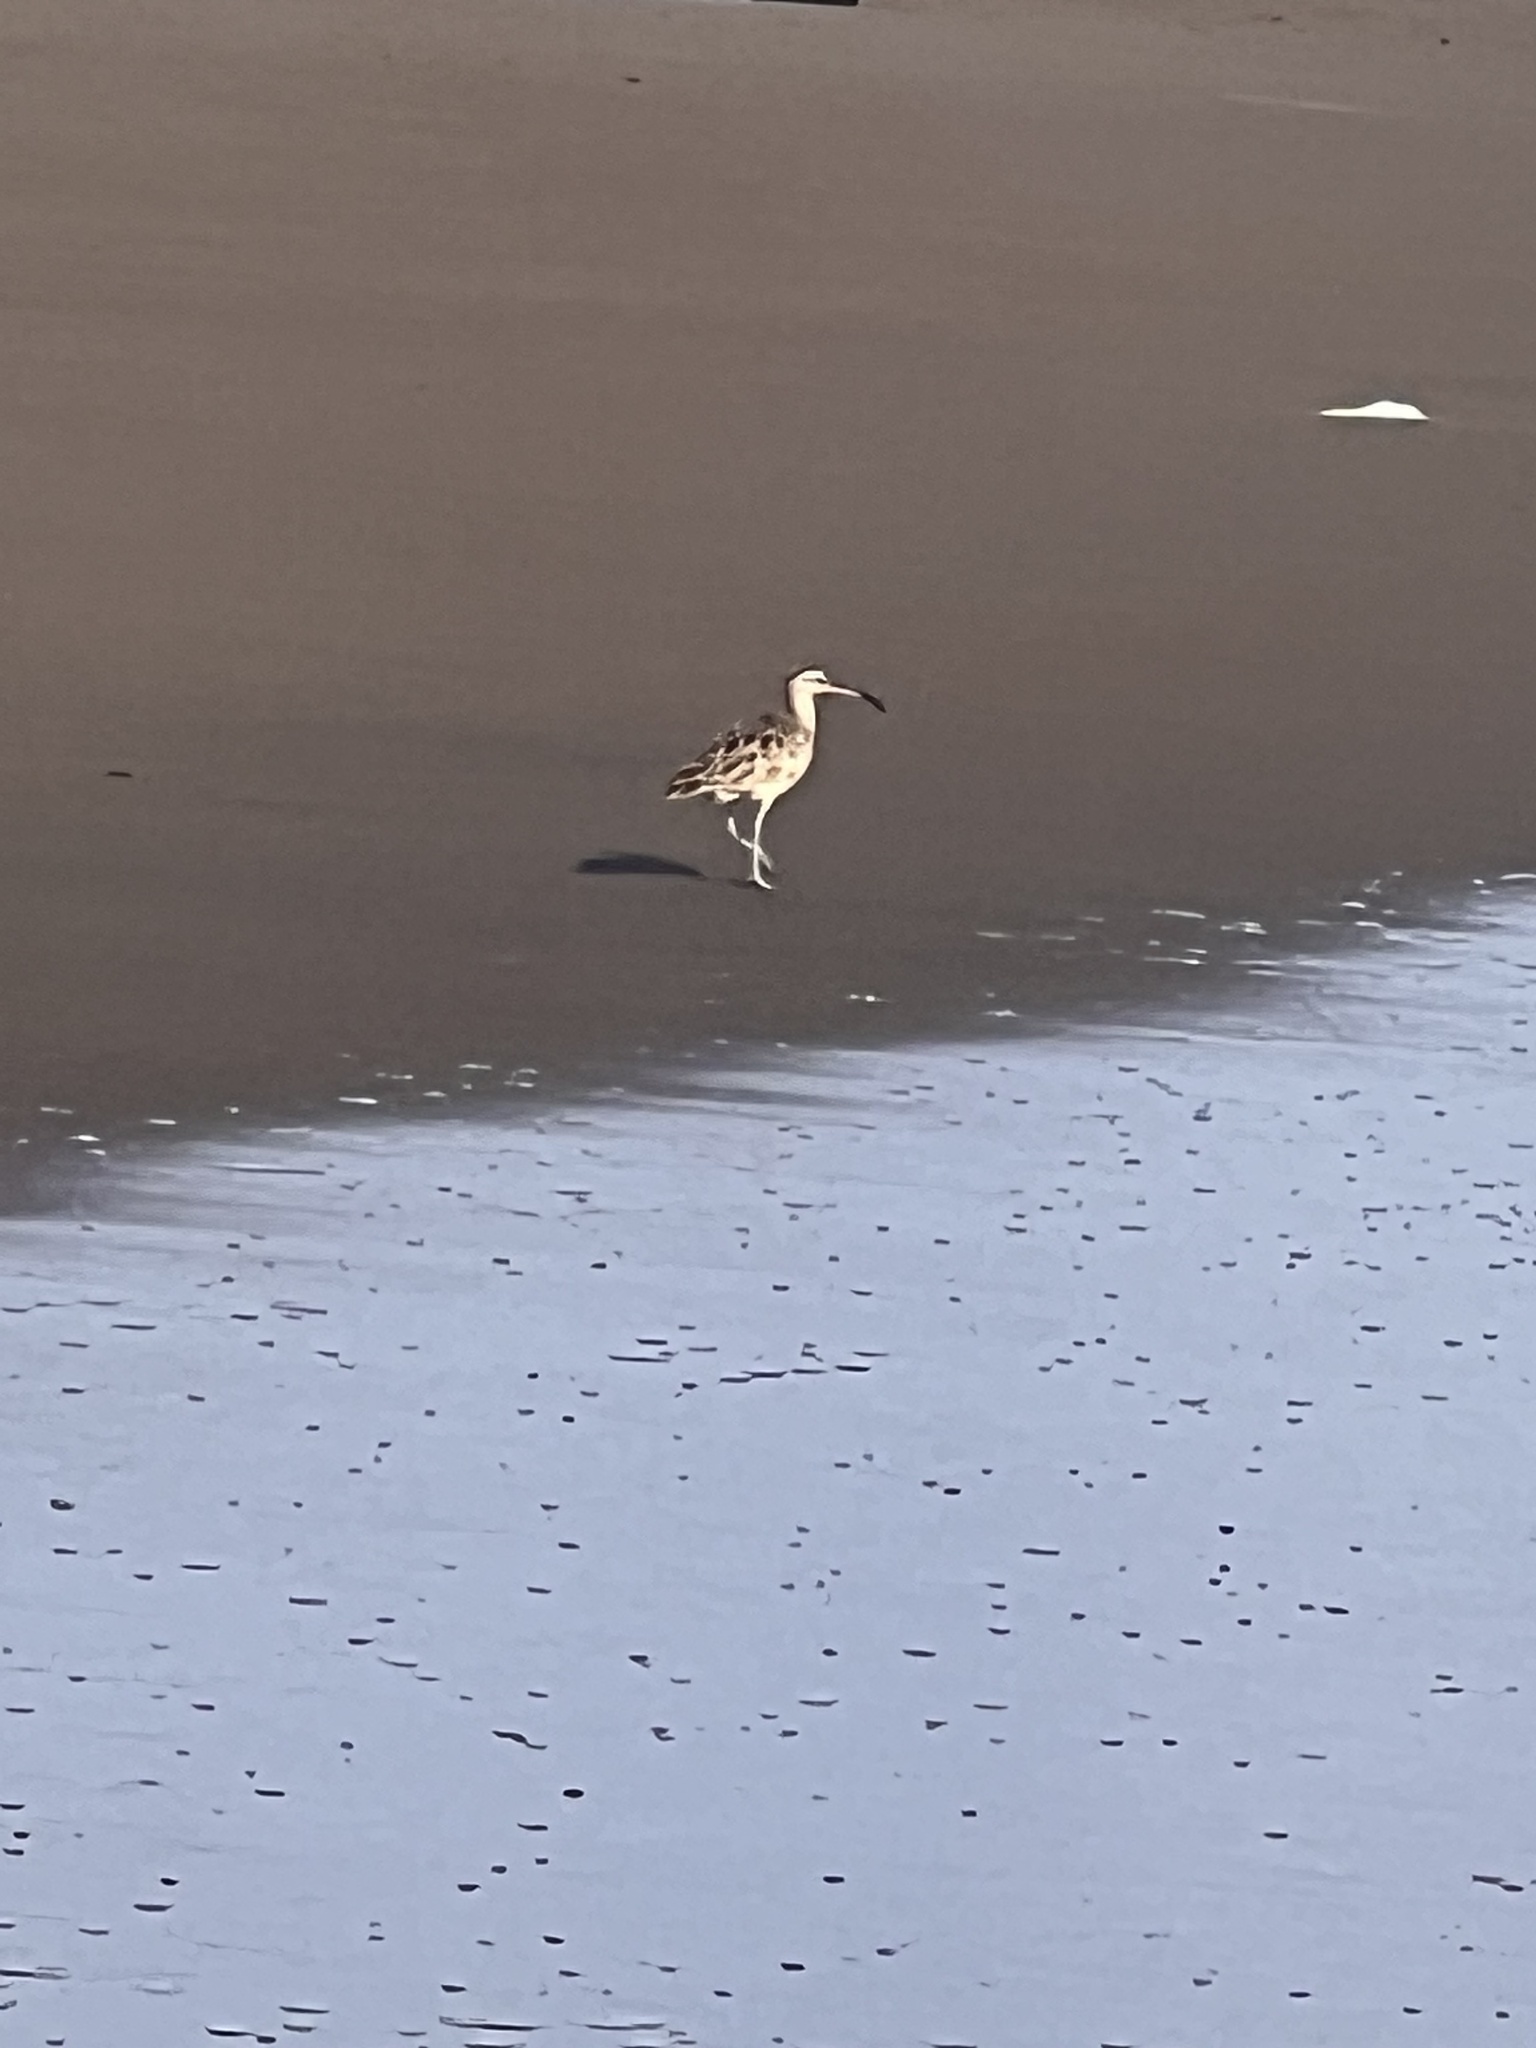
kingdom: Animalia
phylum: Chordata
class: Aves
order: Charadriiformes
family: Scolopacidae
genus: Numenius
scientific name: Numenius phaeopus
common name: Whimbrel
